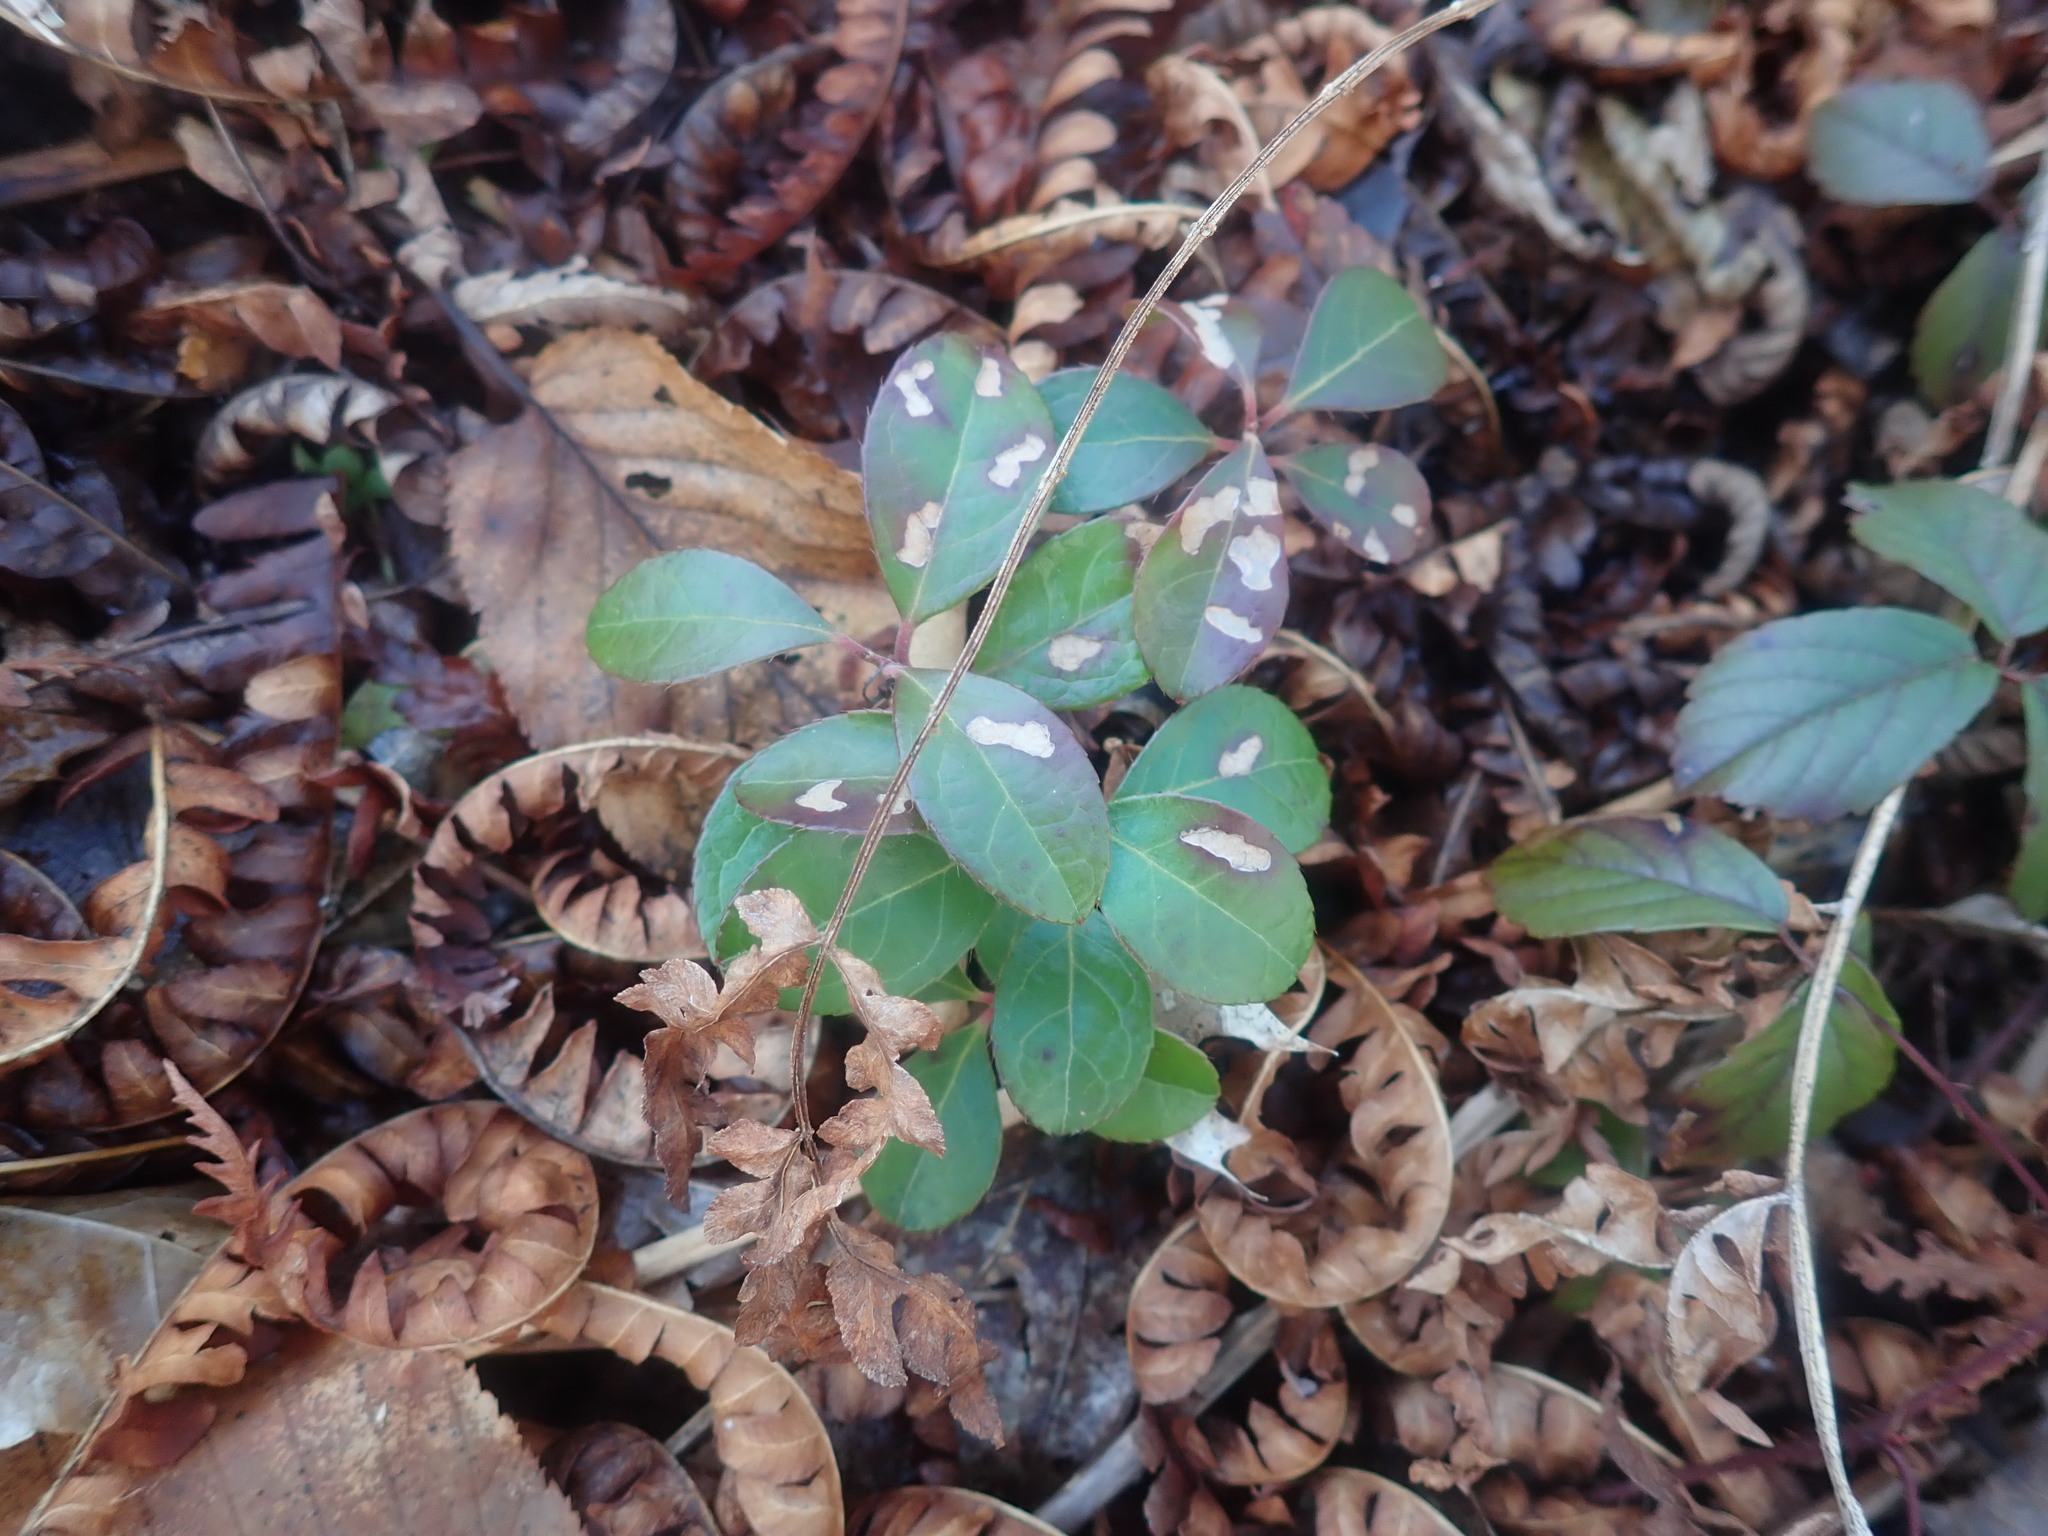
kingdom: Plantae
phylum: Tracheophyta
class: Magnoliopsida
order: Ericales
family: Ericaceae
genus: Gaultheria
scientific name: Gaultheria procumbens
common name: Checkerberry
